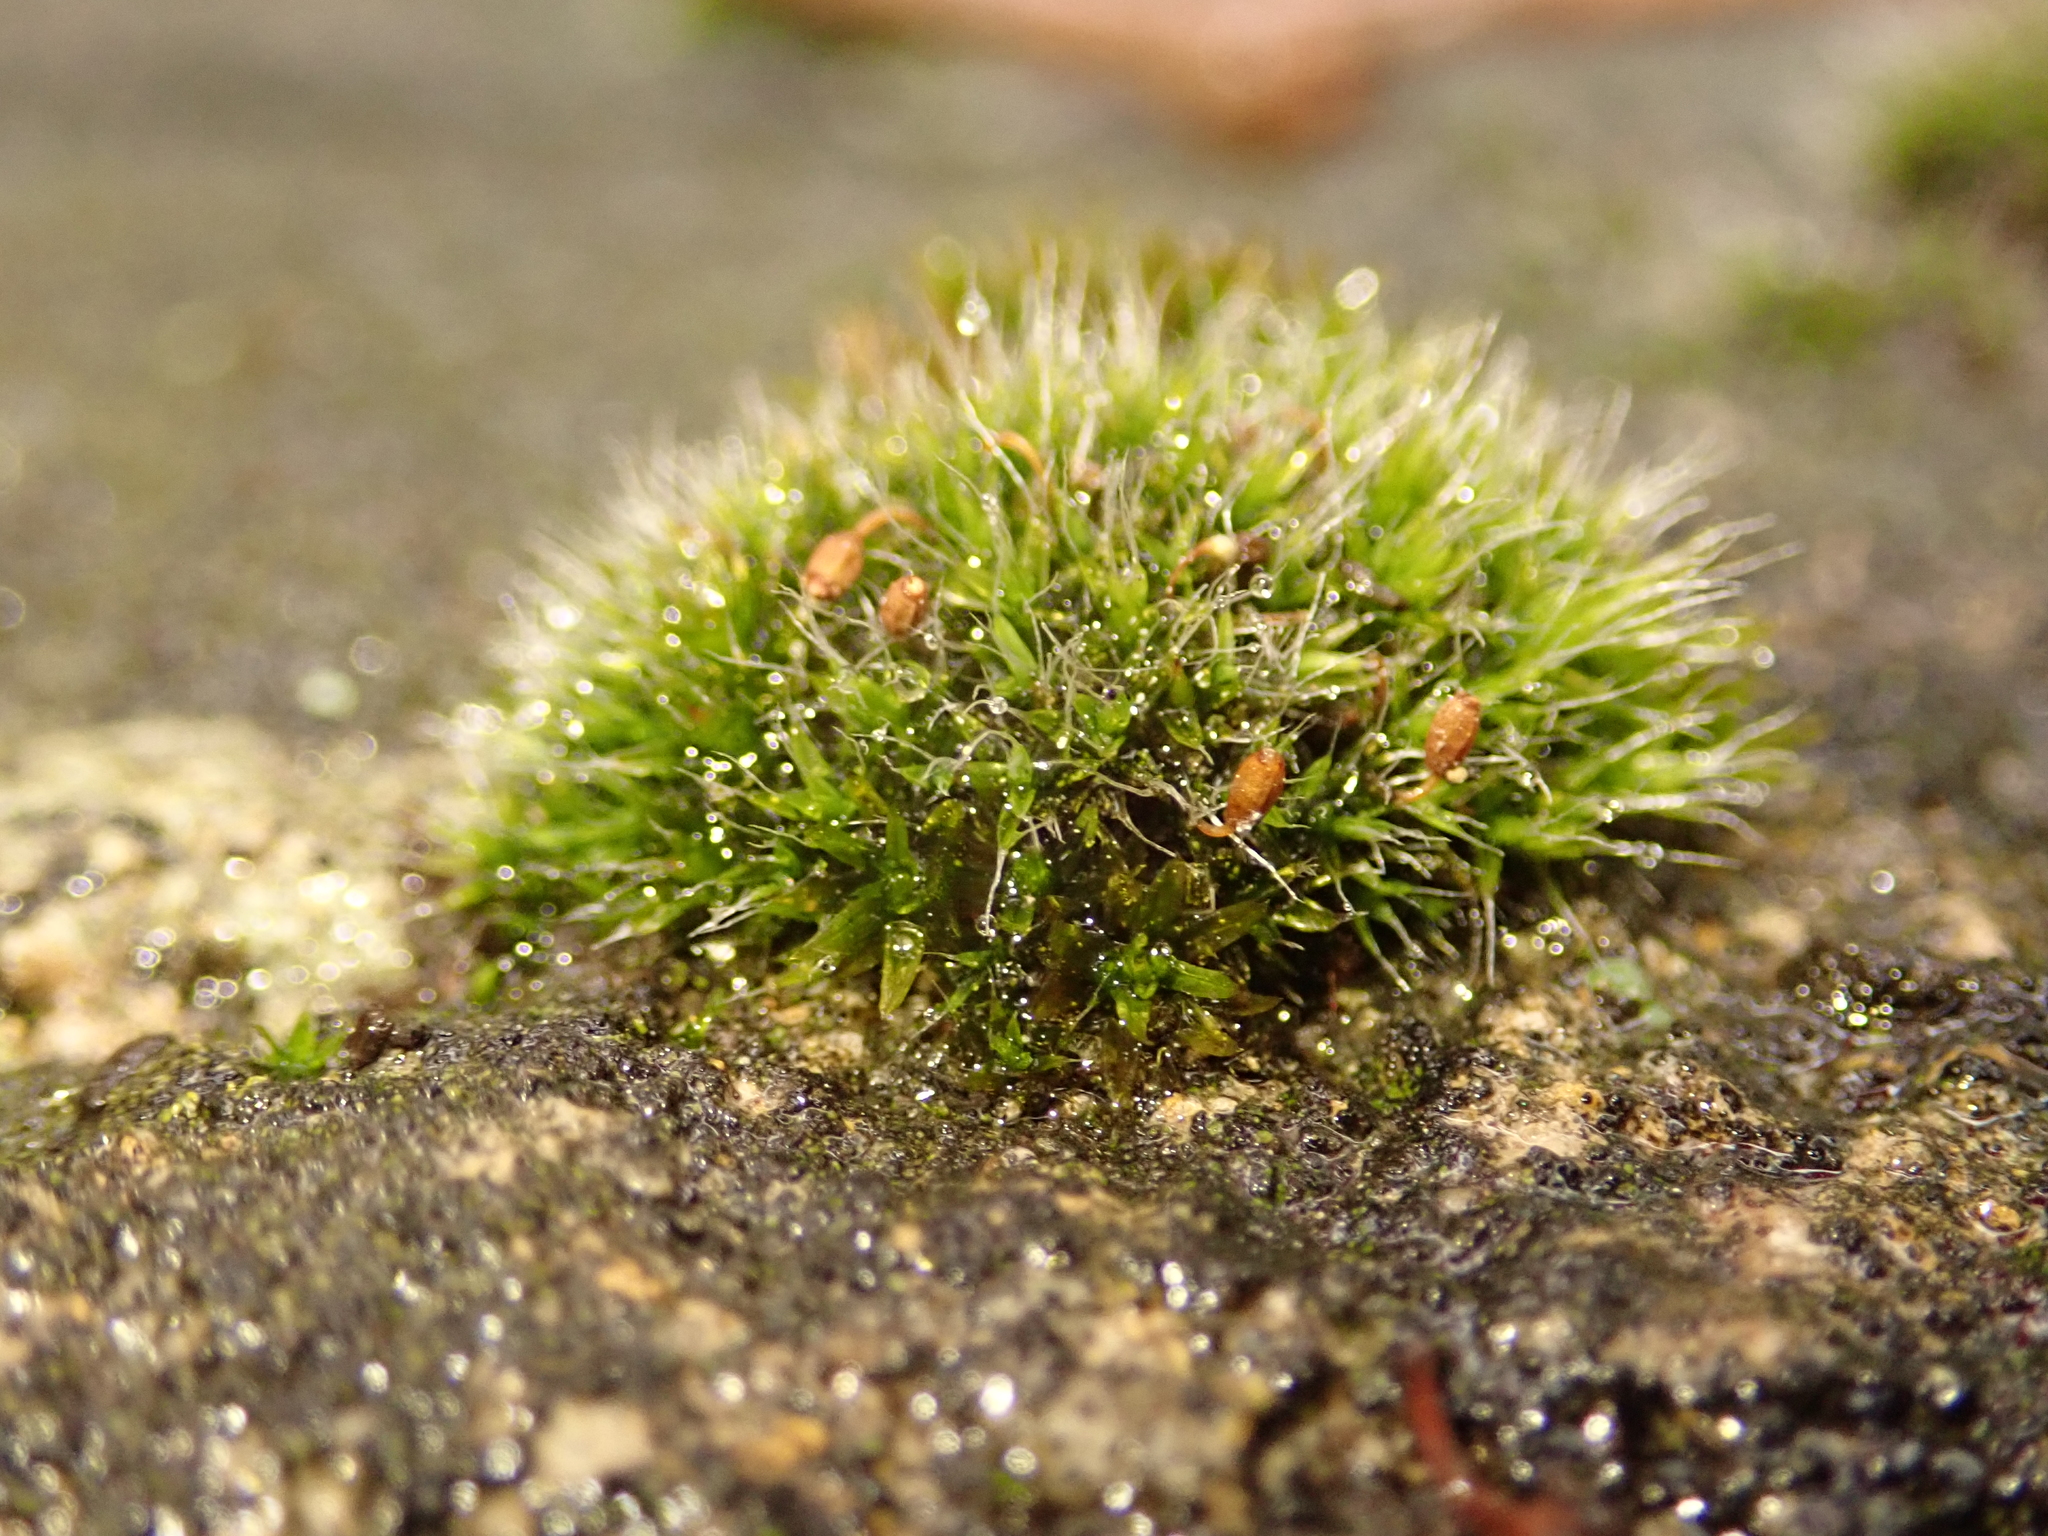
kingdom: Plantae
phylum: Bryophyta
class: Bryopsida
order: Grimmiales
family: Grimmiaceae
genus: Grimmia
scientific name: Grimmia pulvinata
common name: Grey-cushioned grimmia
